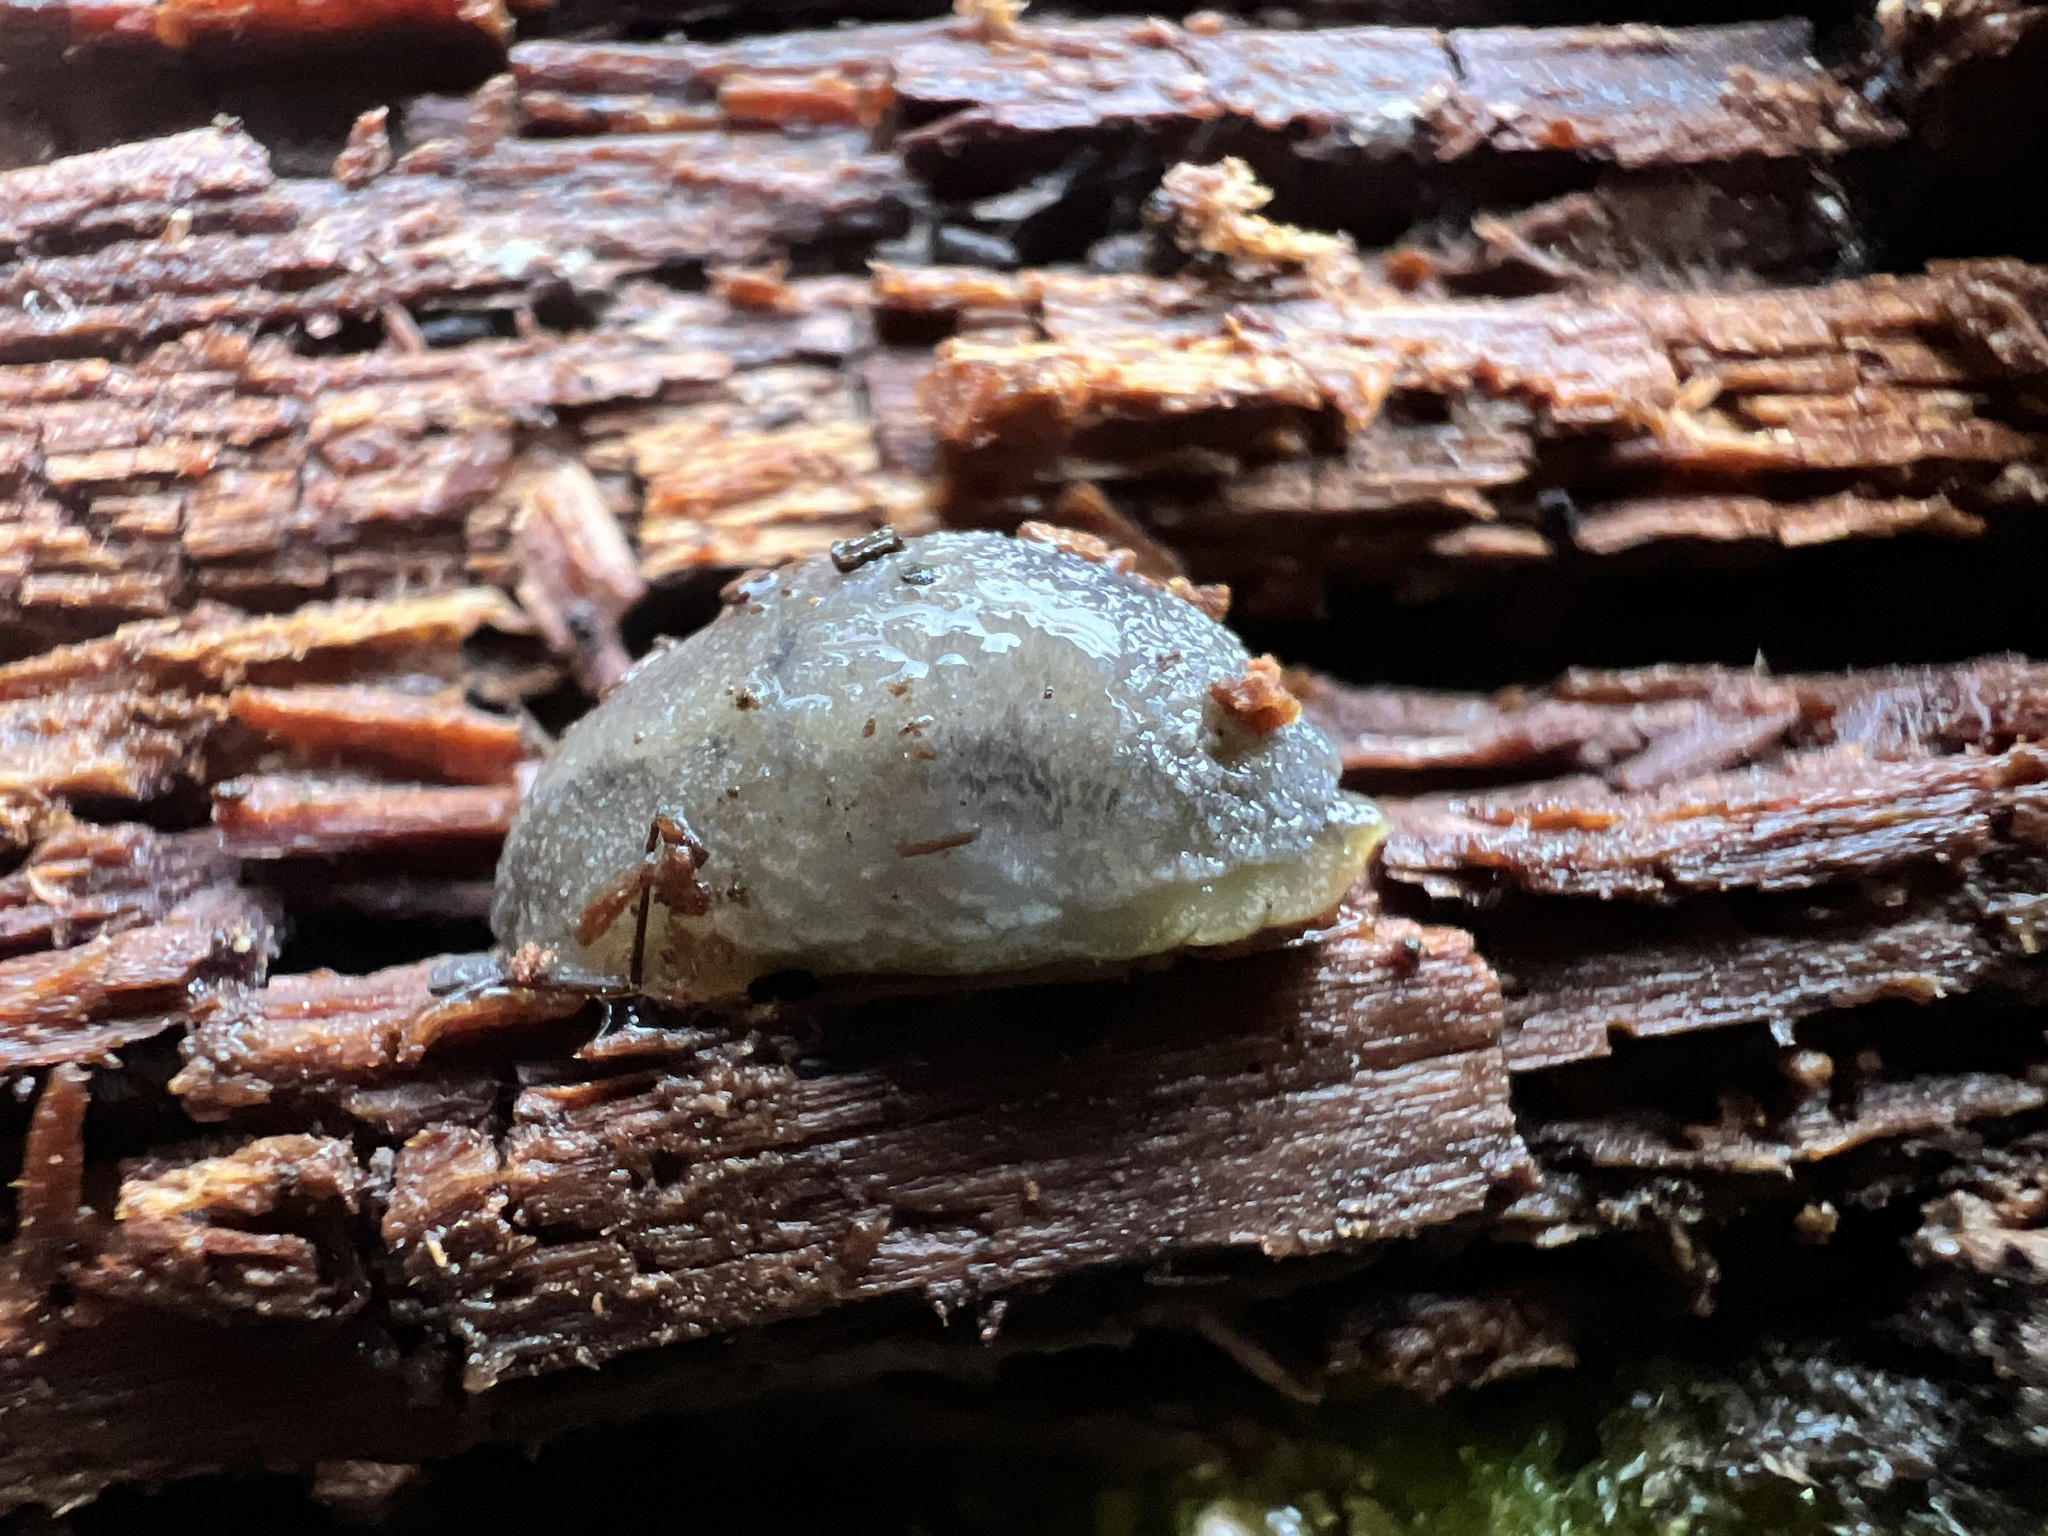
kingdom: Animalia
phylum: Mollusca
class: Gastropoda
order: Stylommatophora
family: Arionidae
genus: Arion
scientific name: Arion intermedius
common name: Hedgehog slug
